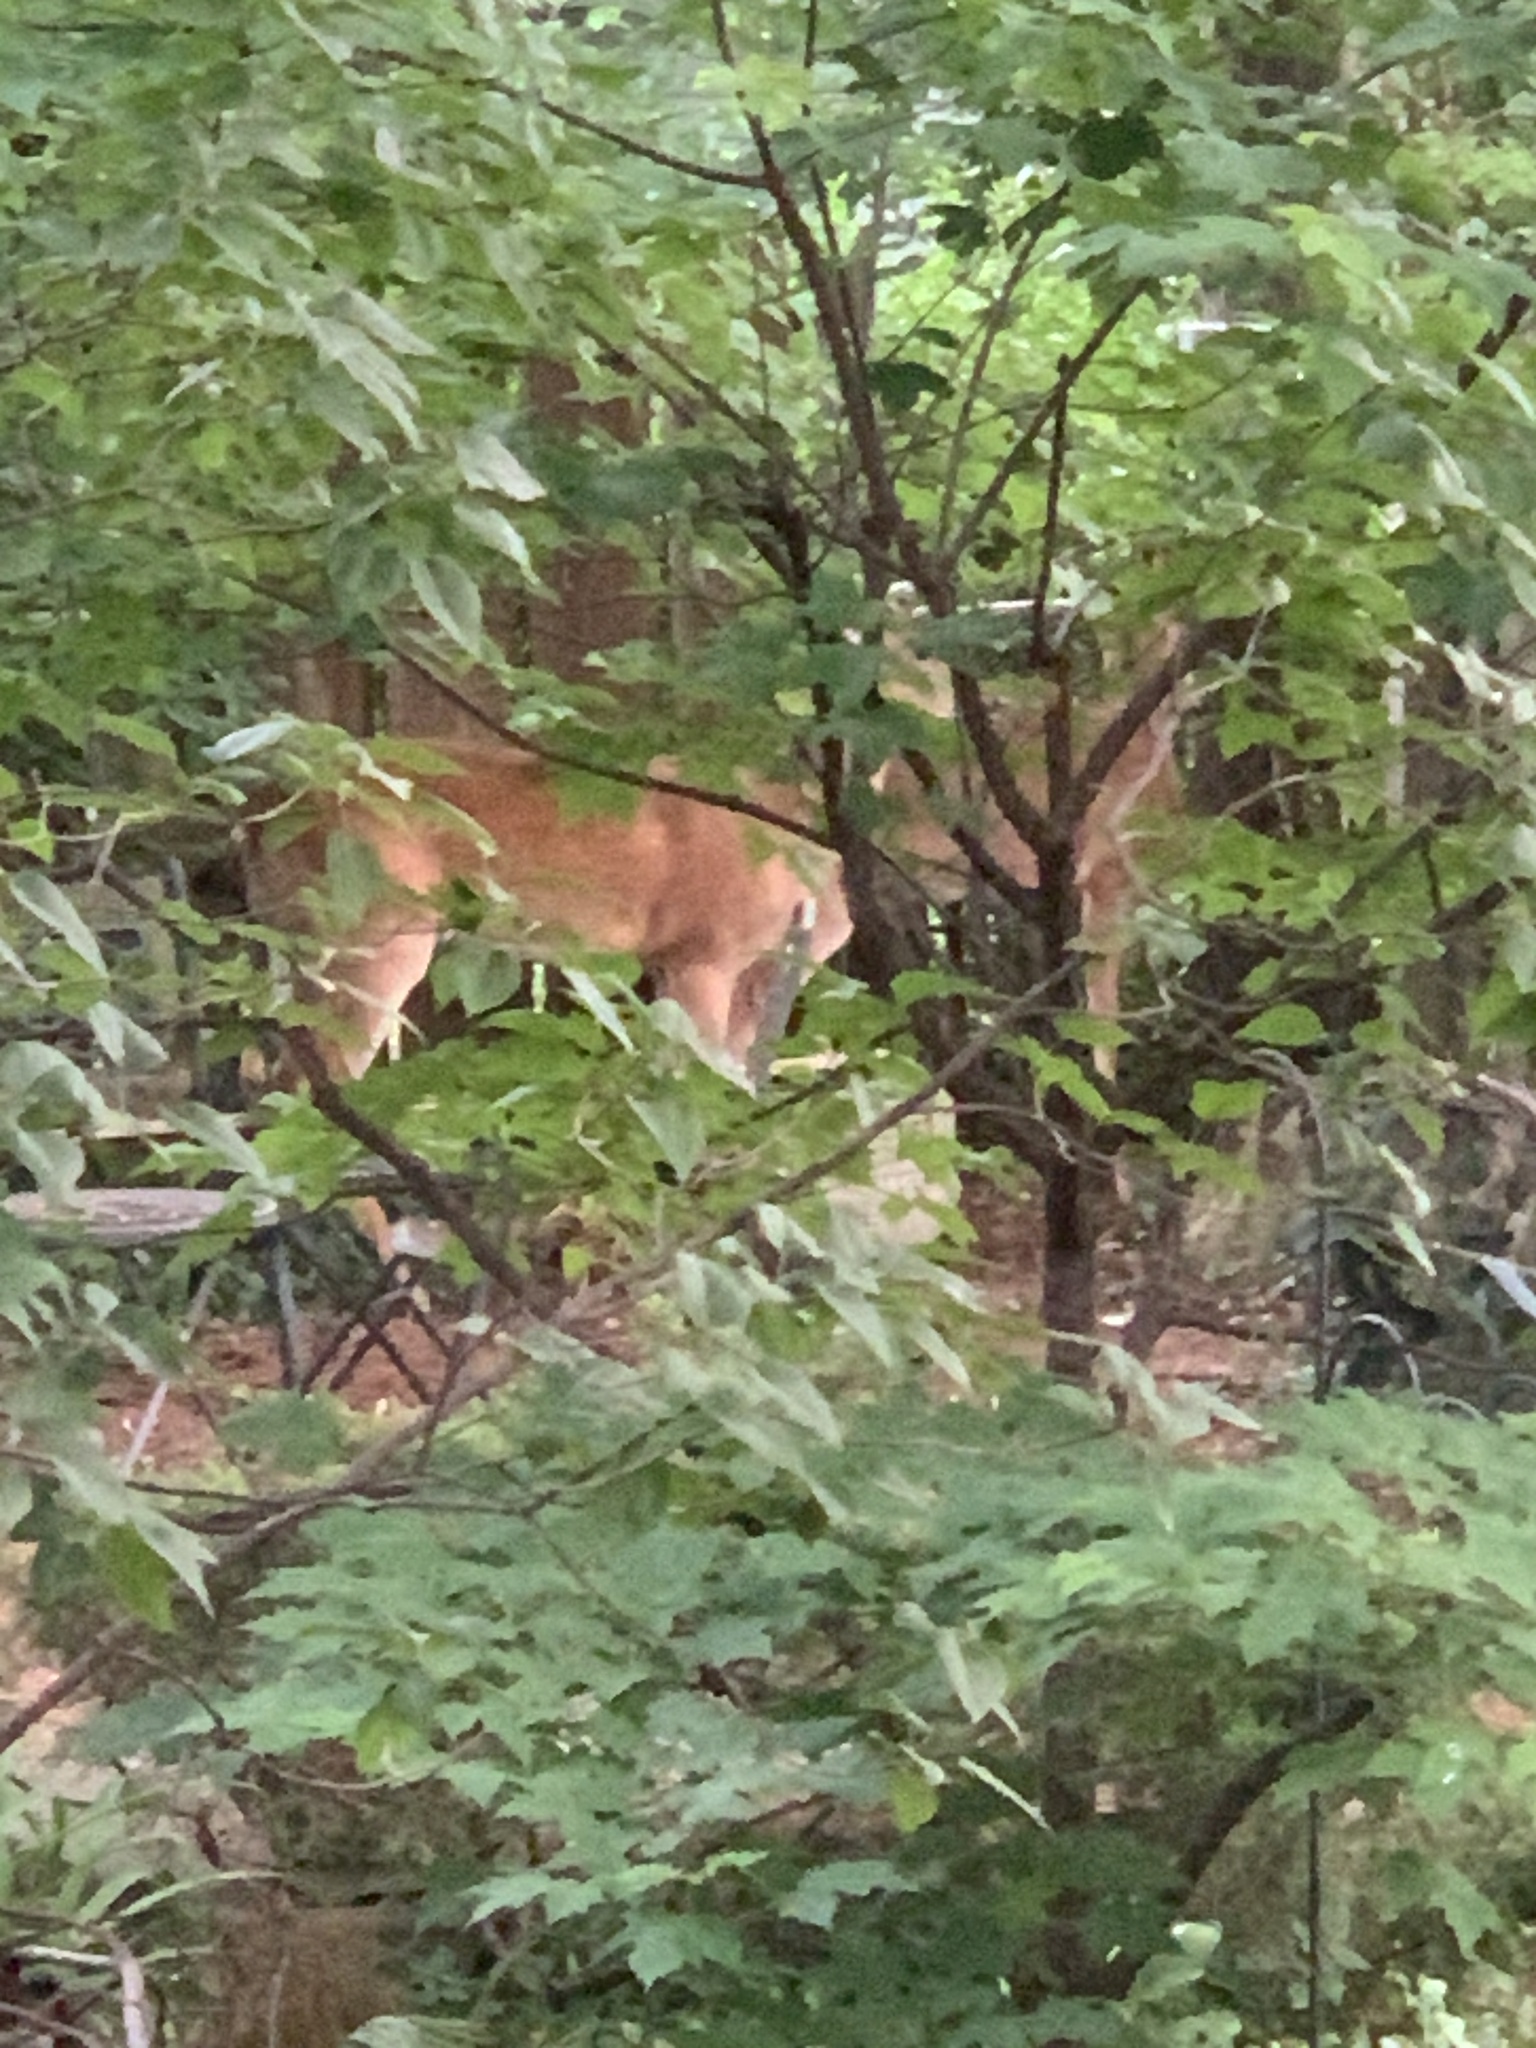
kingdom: Animalia
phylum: Chordata
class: Mammalia
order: Artiodactyla
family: Cervidae
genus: Odocoileus
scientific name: Odocoileus virginianus
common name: White-tailed deer
